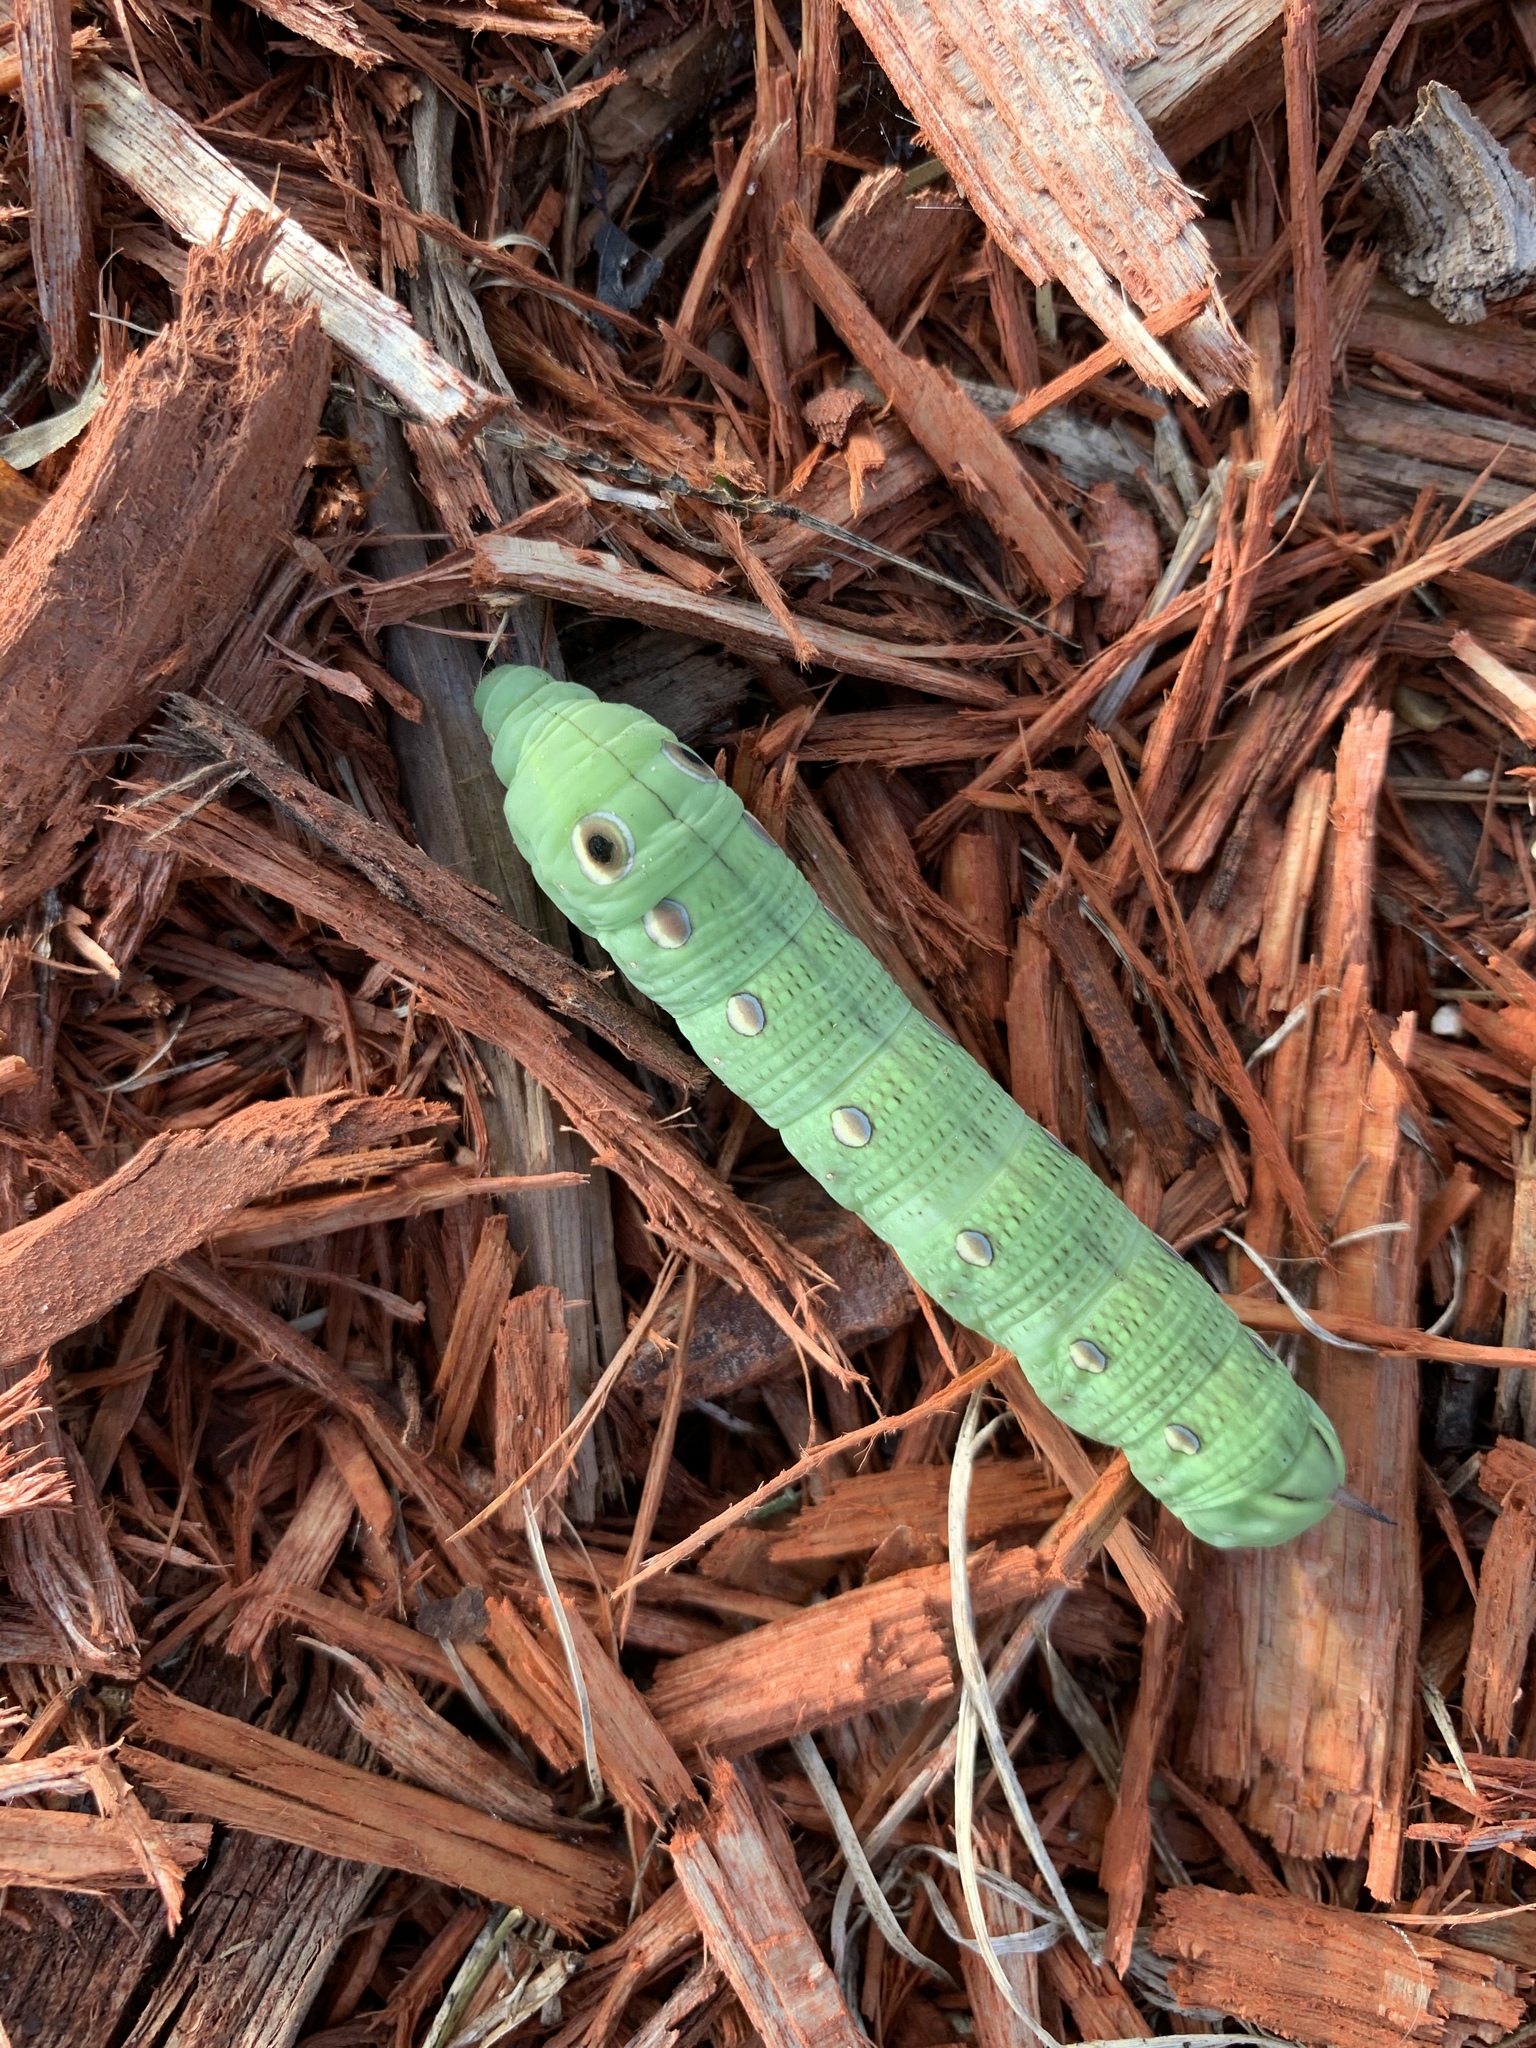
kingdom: Animalia
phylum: Arthropoda
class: Insecta
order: Lepidoptera
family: Sphingidae
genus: Xylophanes
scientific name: Xylophanes tersa
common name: Tersa sphinx
